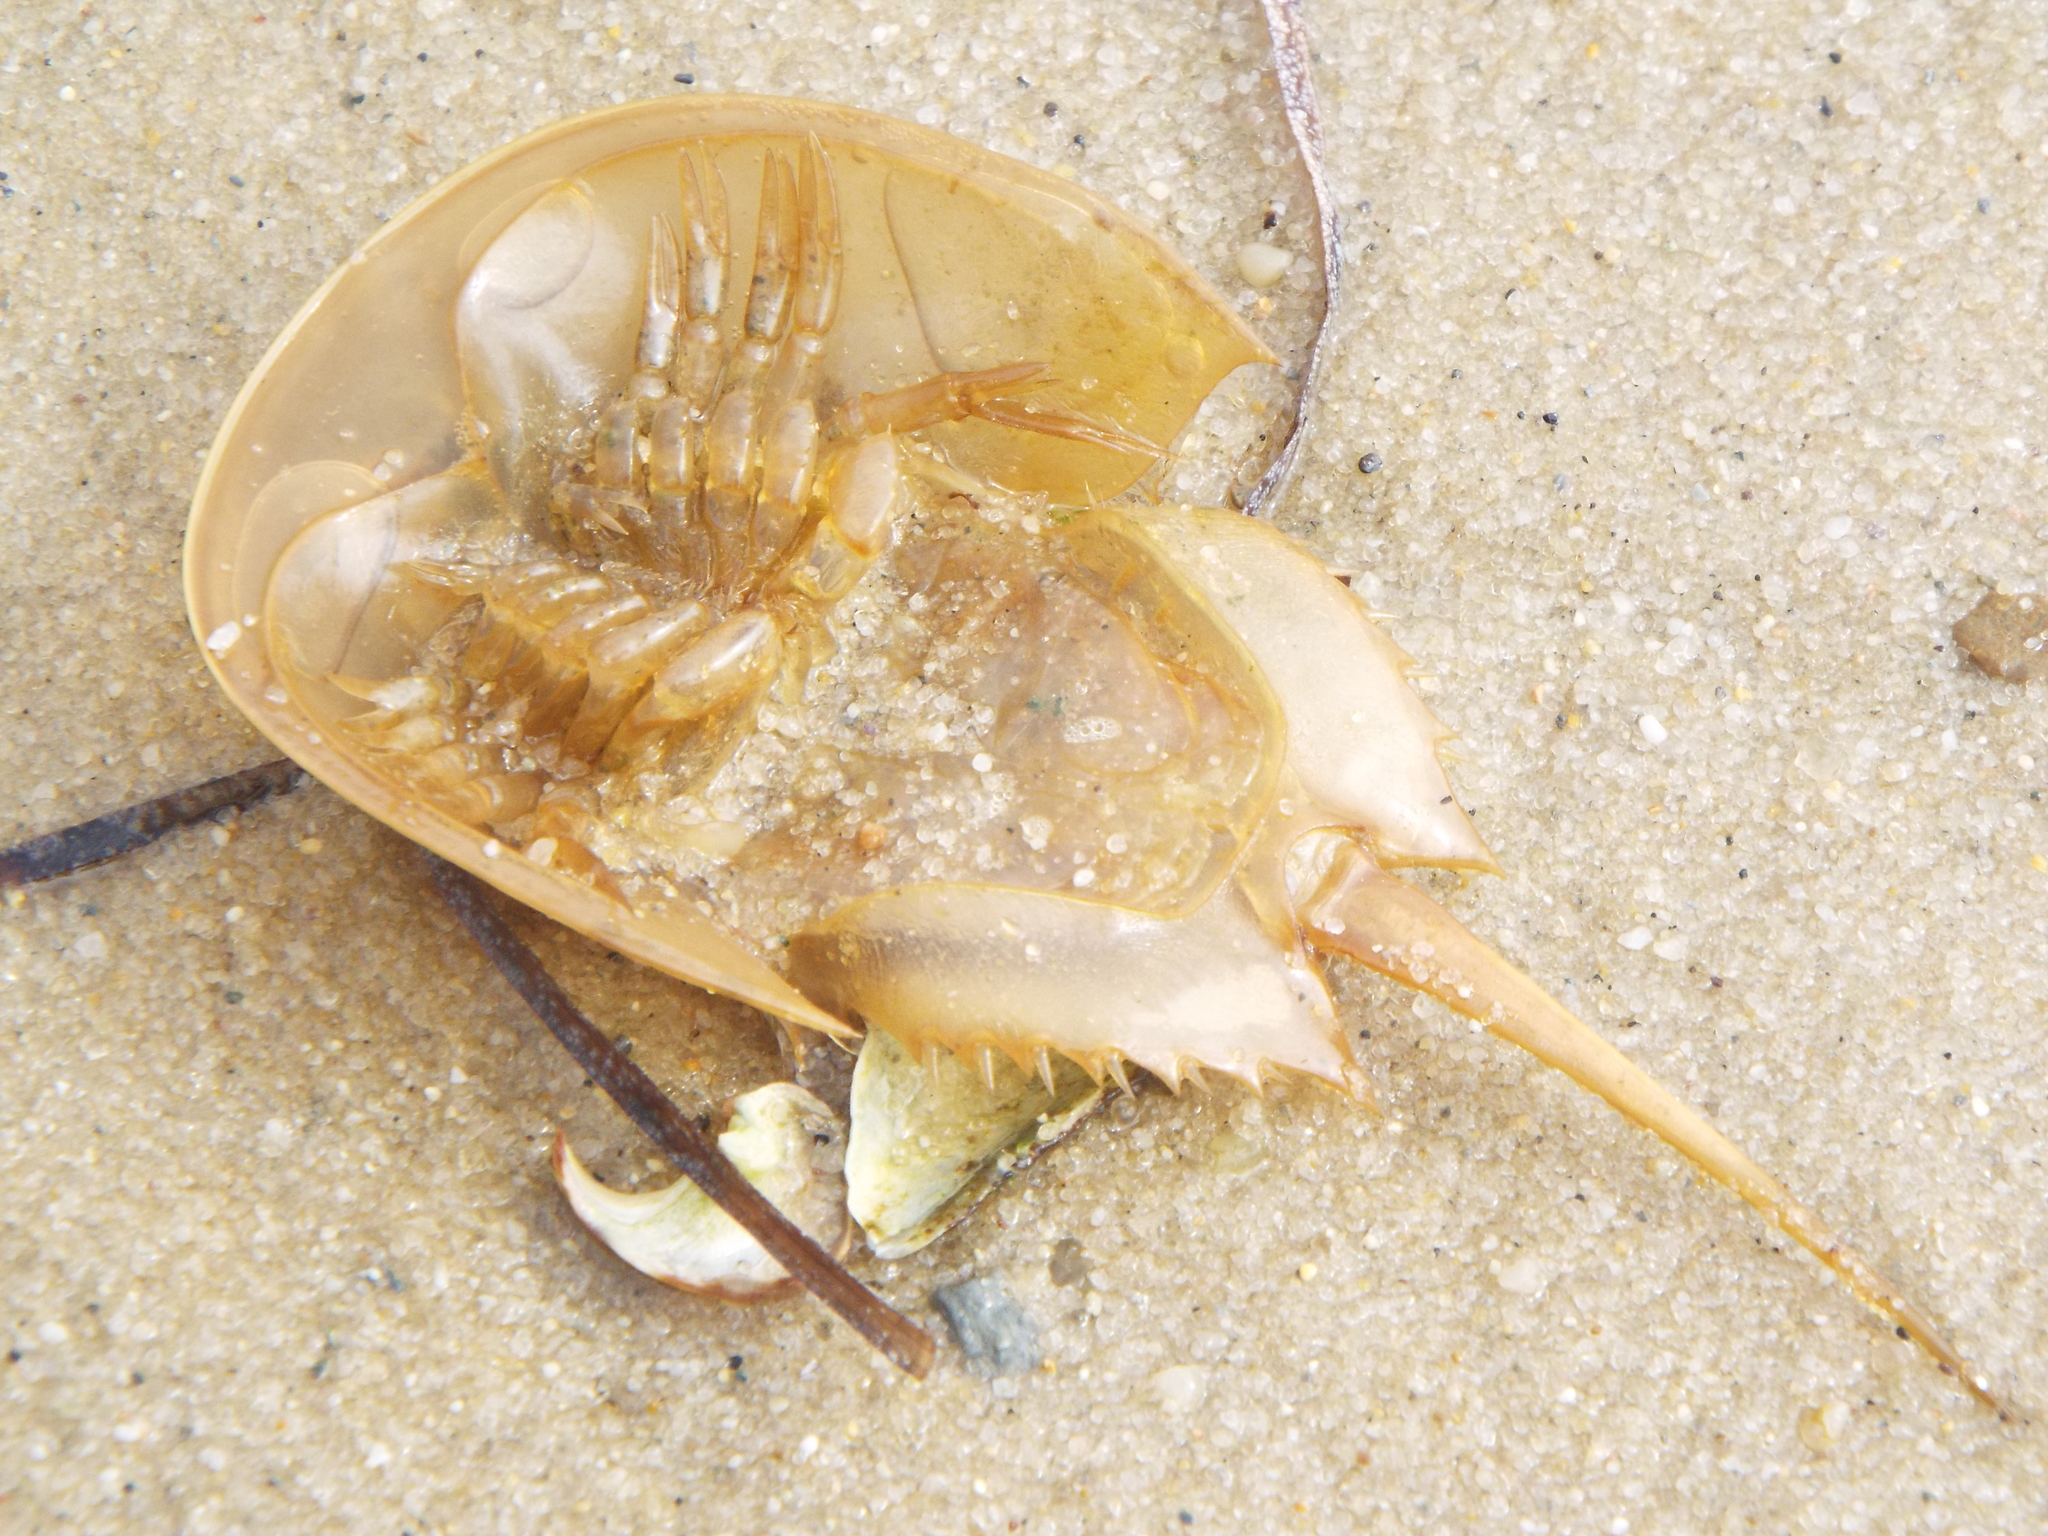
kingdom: Animalia
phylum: Arthropoda
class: Merostomata
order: Xiphosurida
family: Limulidae
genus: Limulus
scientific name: Limulus polyphemus
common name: Horseshoe crab
